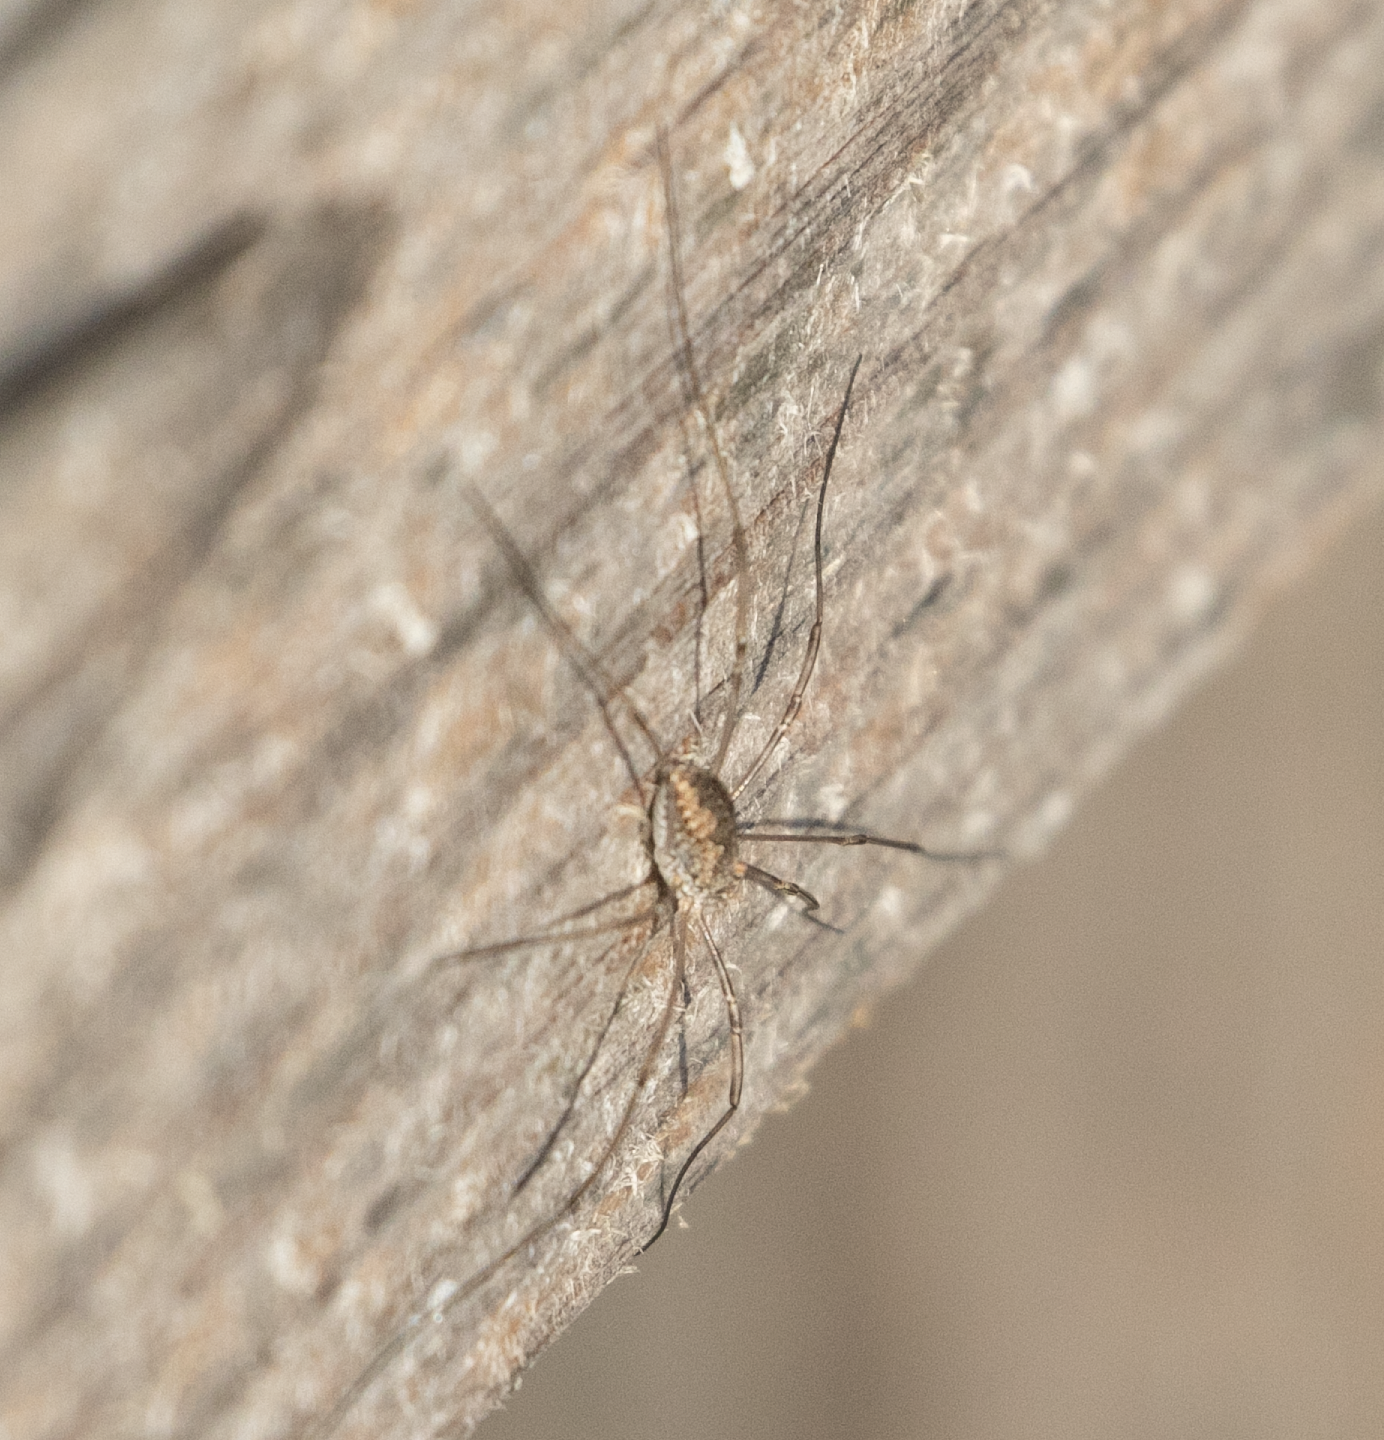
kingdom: Animalia
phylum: Arthropoda
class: Arachnida
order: Opiliones
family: Phalangiidae
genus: Phalangium
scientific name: Phalangium opilio
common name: Daddy longleg
